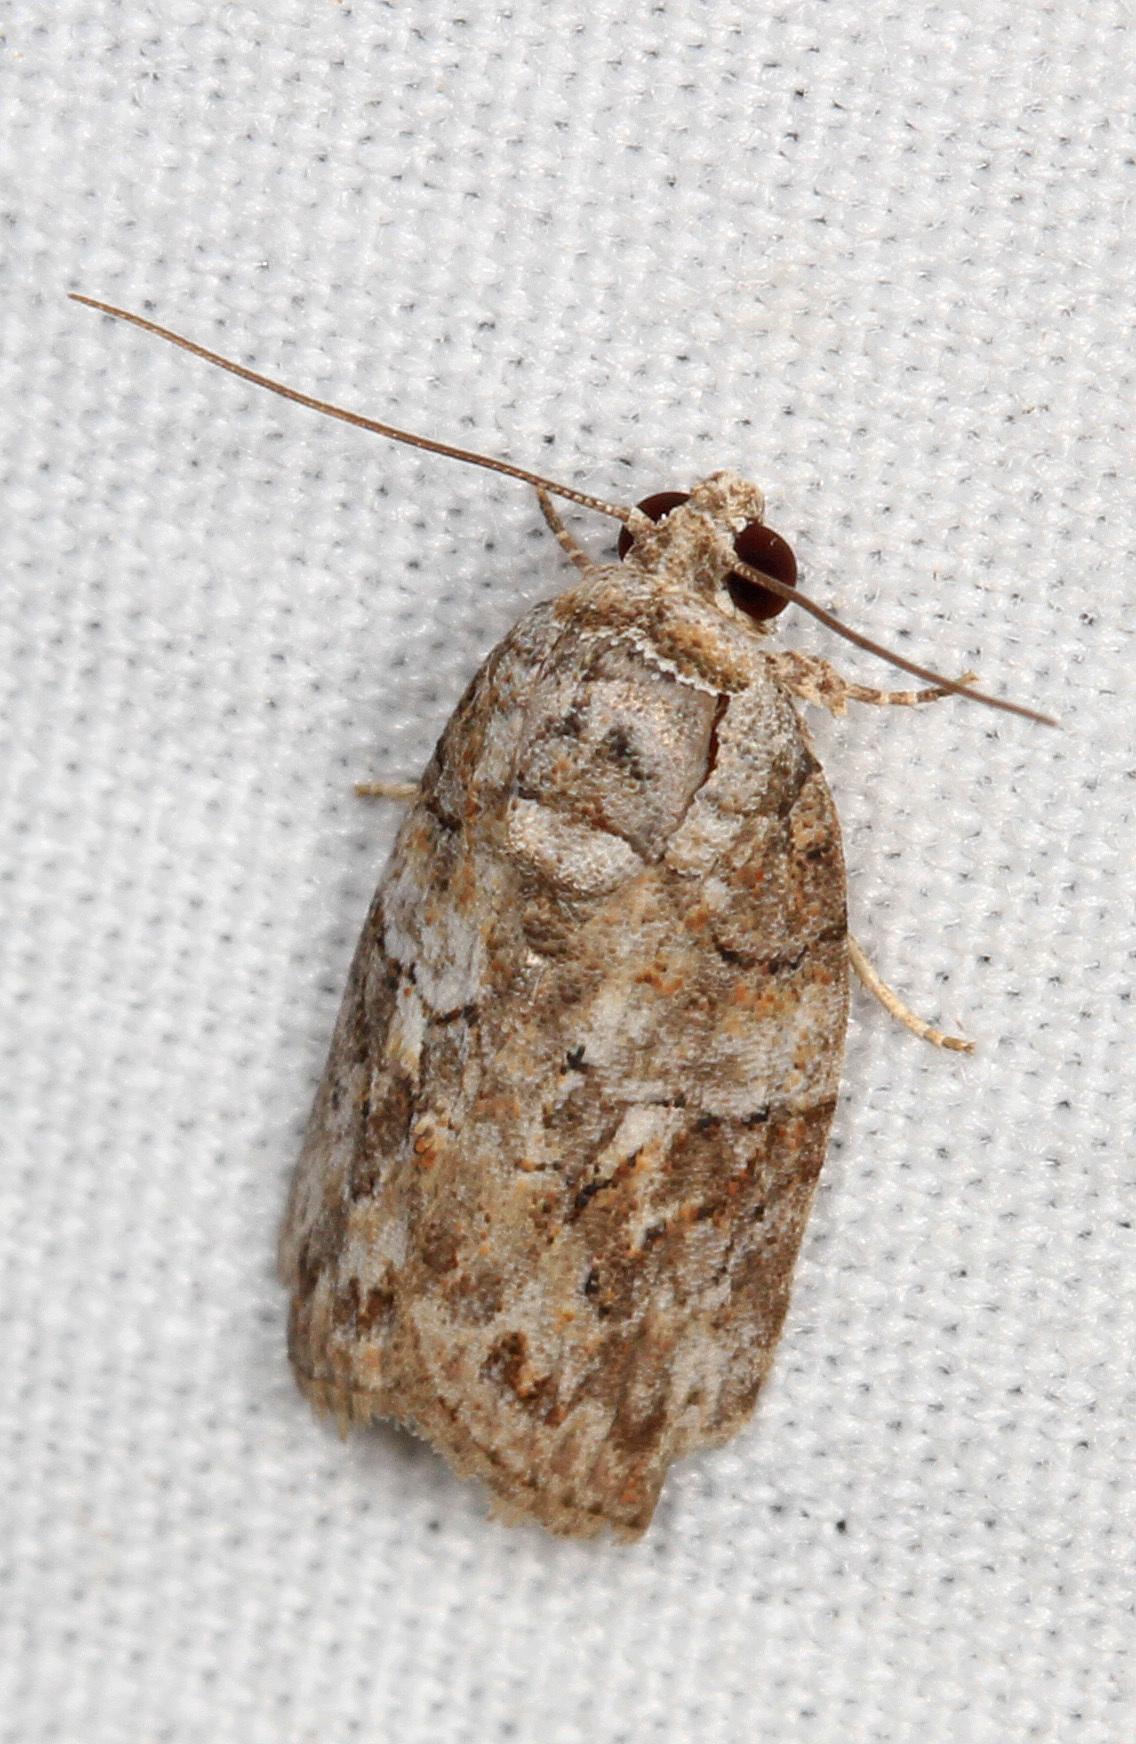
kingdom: Animalia
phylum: Arthropoda
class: Insecta
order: Lepidoptera
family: Nolidae
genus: Garella
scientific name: Garella nilotica
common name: Black-olive caterpillar moth
